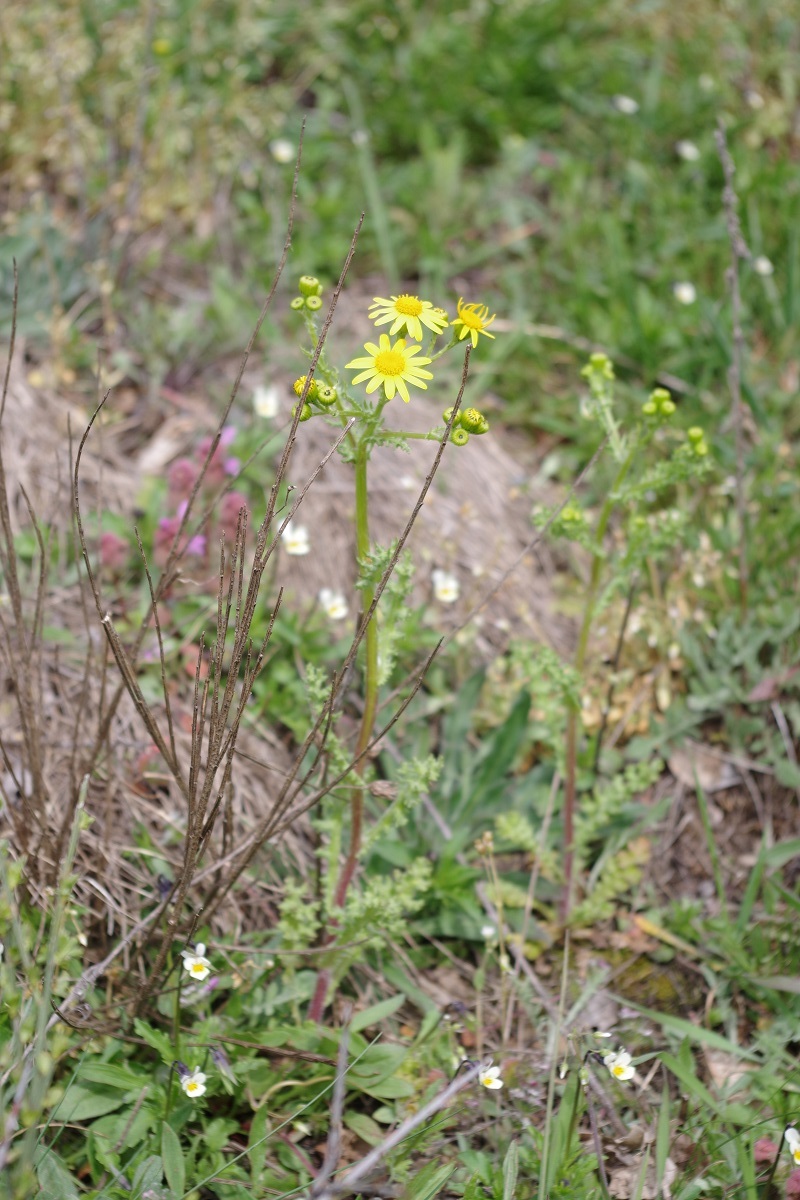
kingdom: Plantae
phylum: Tracheophyta
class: Magnoliopsida
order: Asterales
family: Asteraceae
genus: Senecio
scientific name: Senecio vernalis
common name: Eastern groundsel
